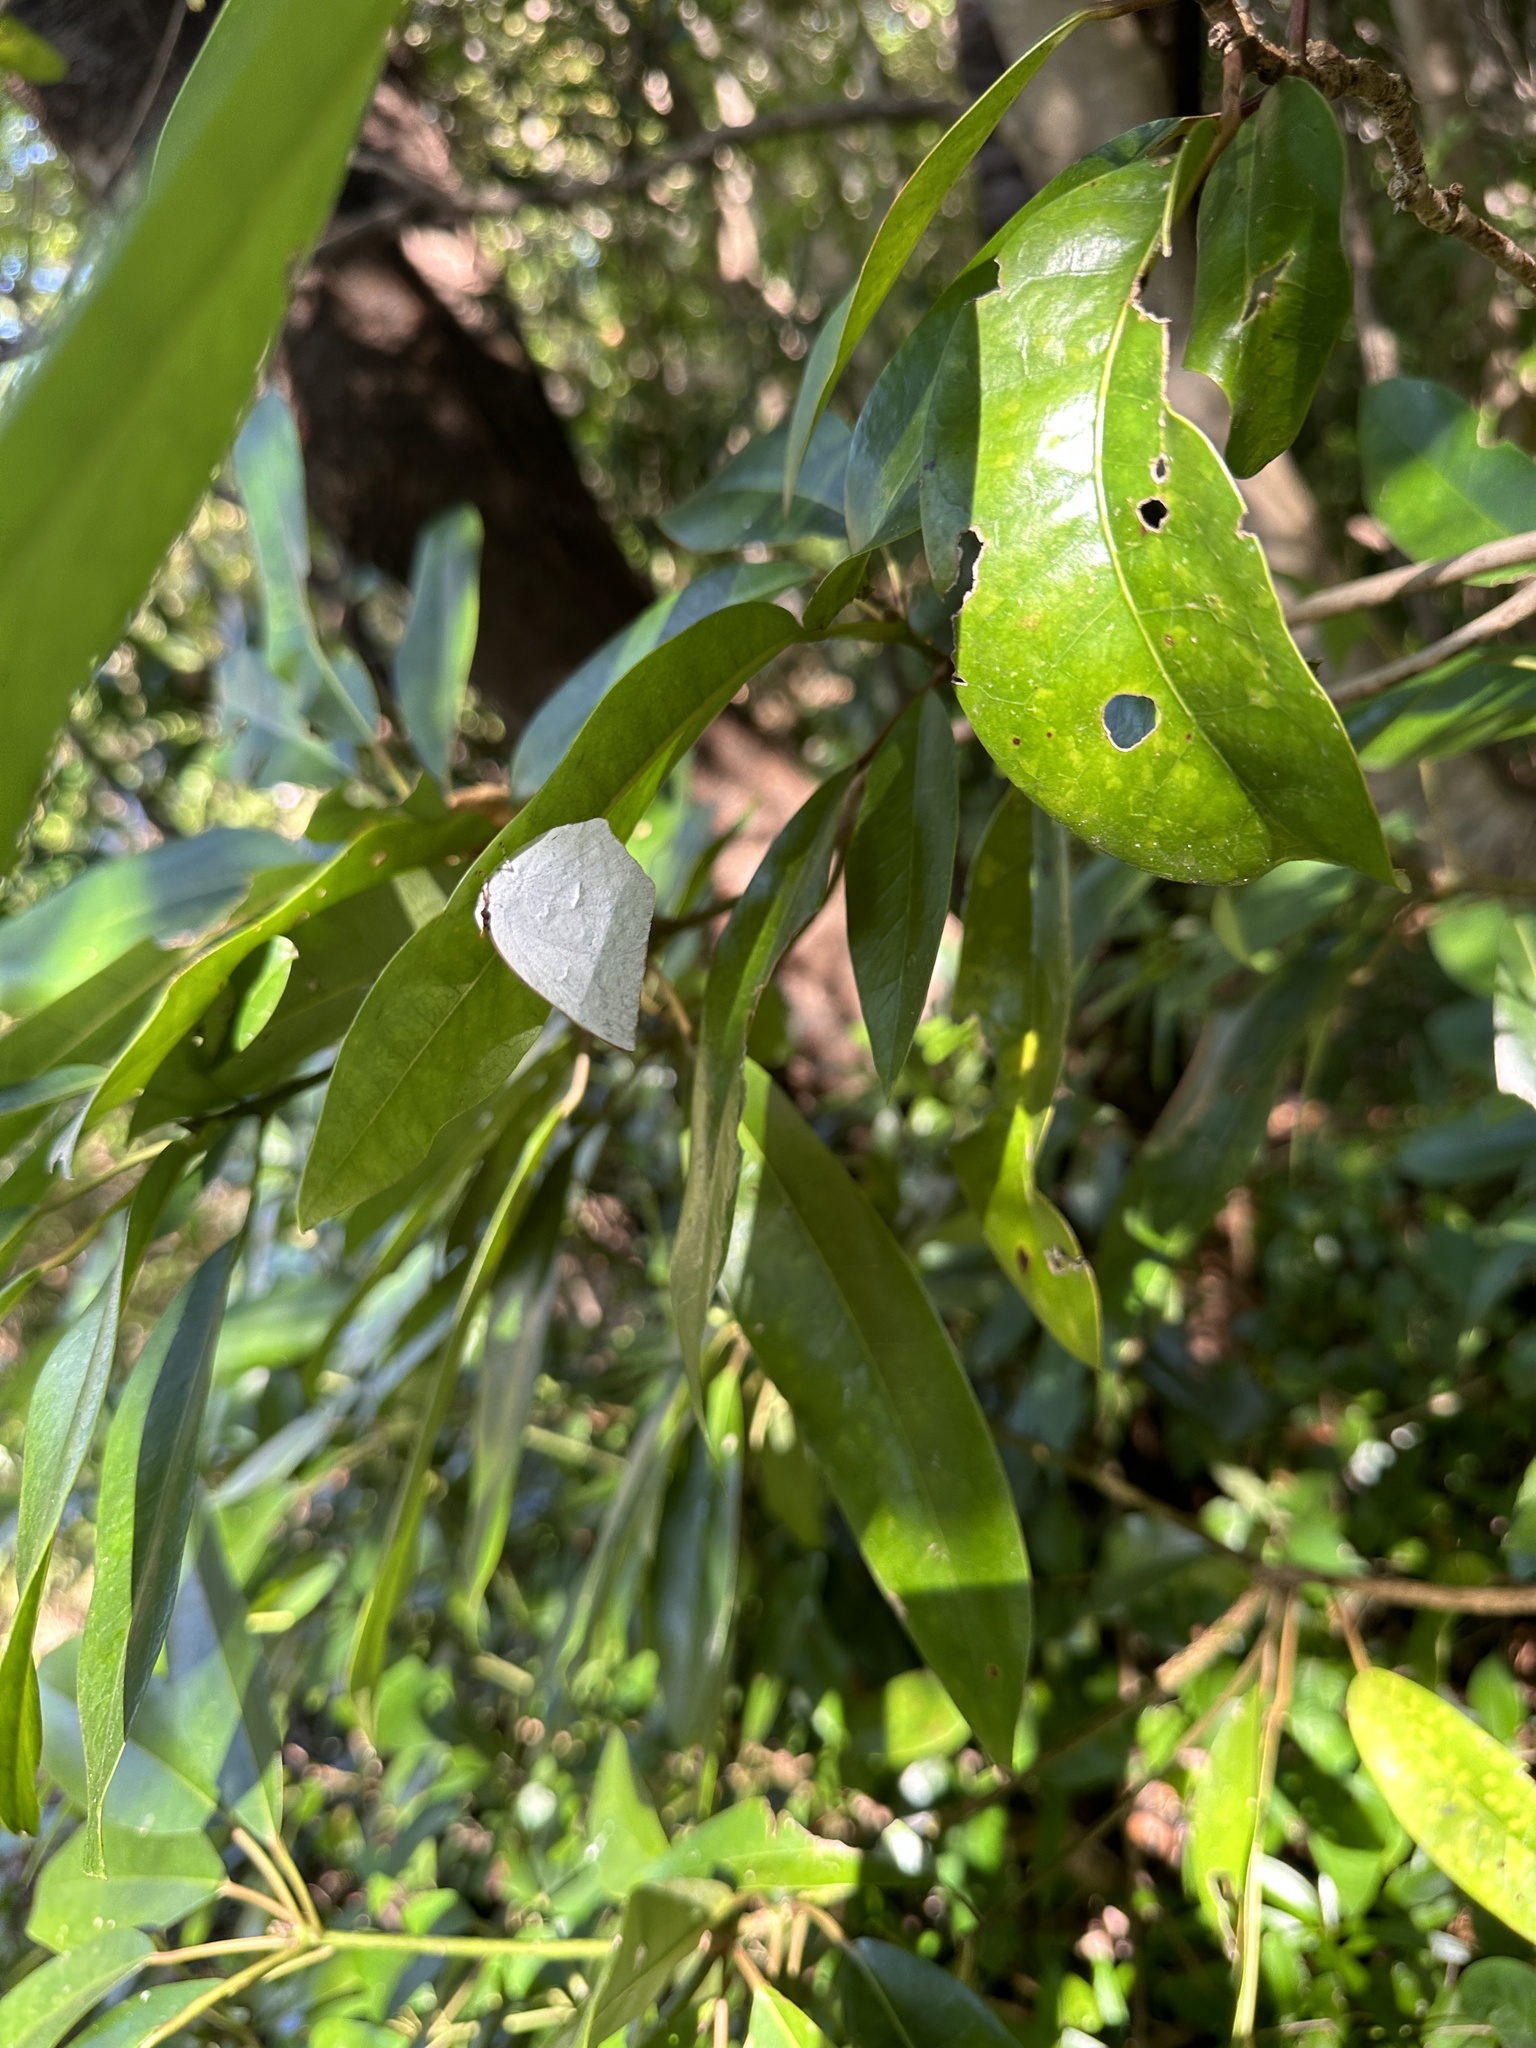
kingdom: Animalia
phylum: Arthropoda
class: Insecta
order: Lepidoptera
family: Lycaenidae
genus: Curetis
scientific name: Curetis acuta
